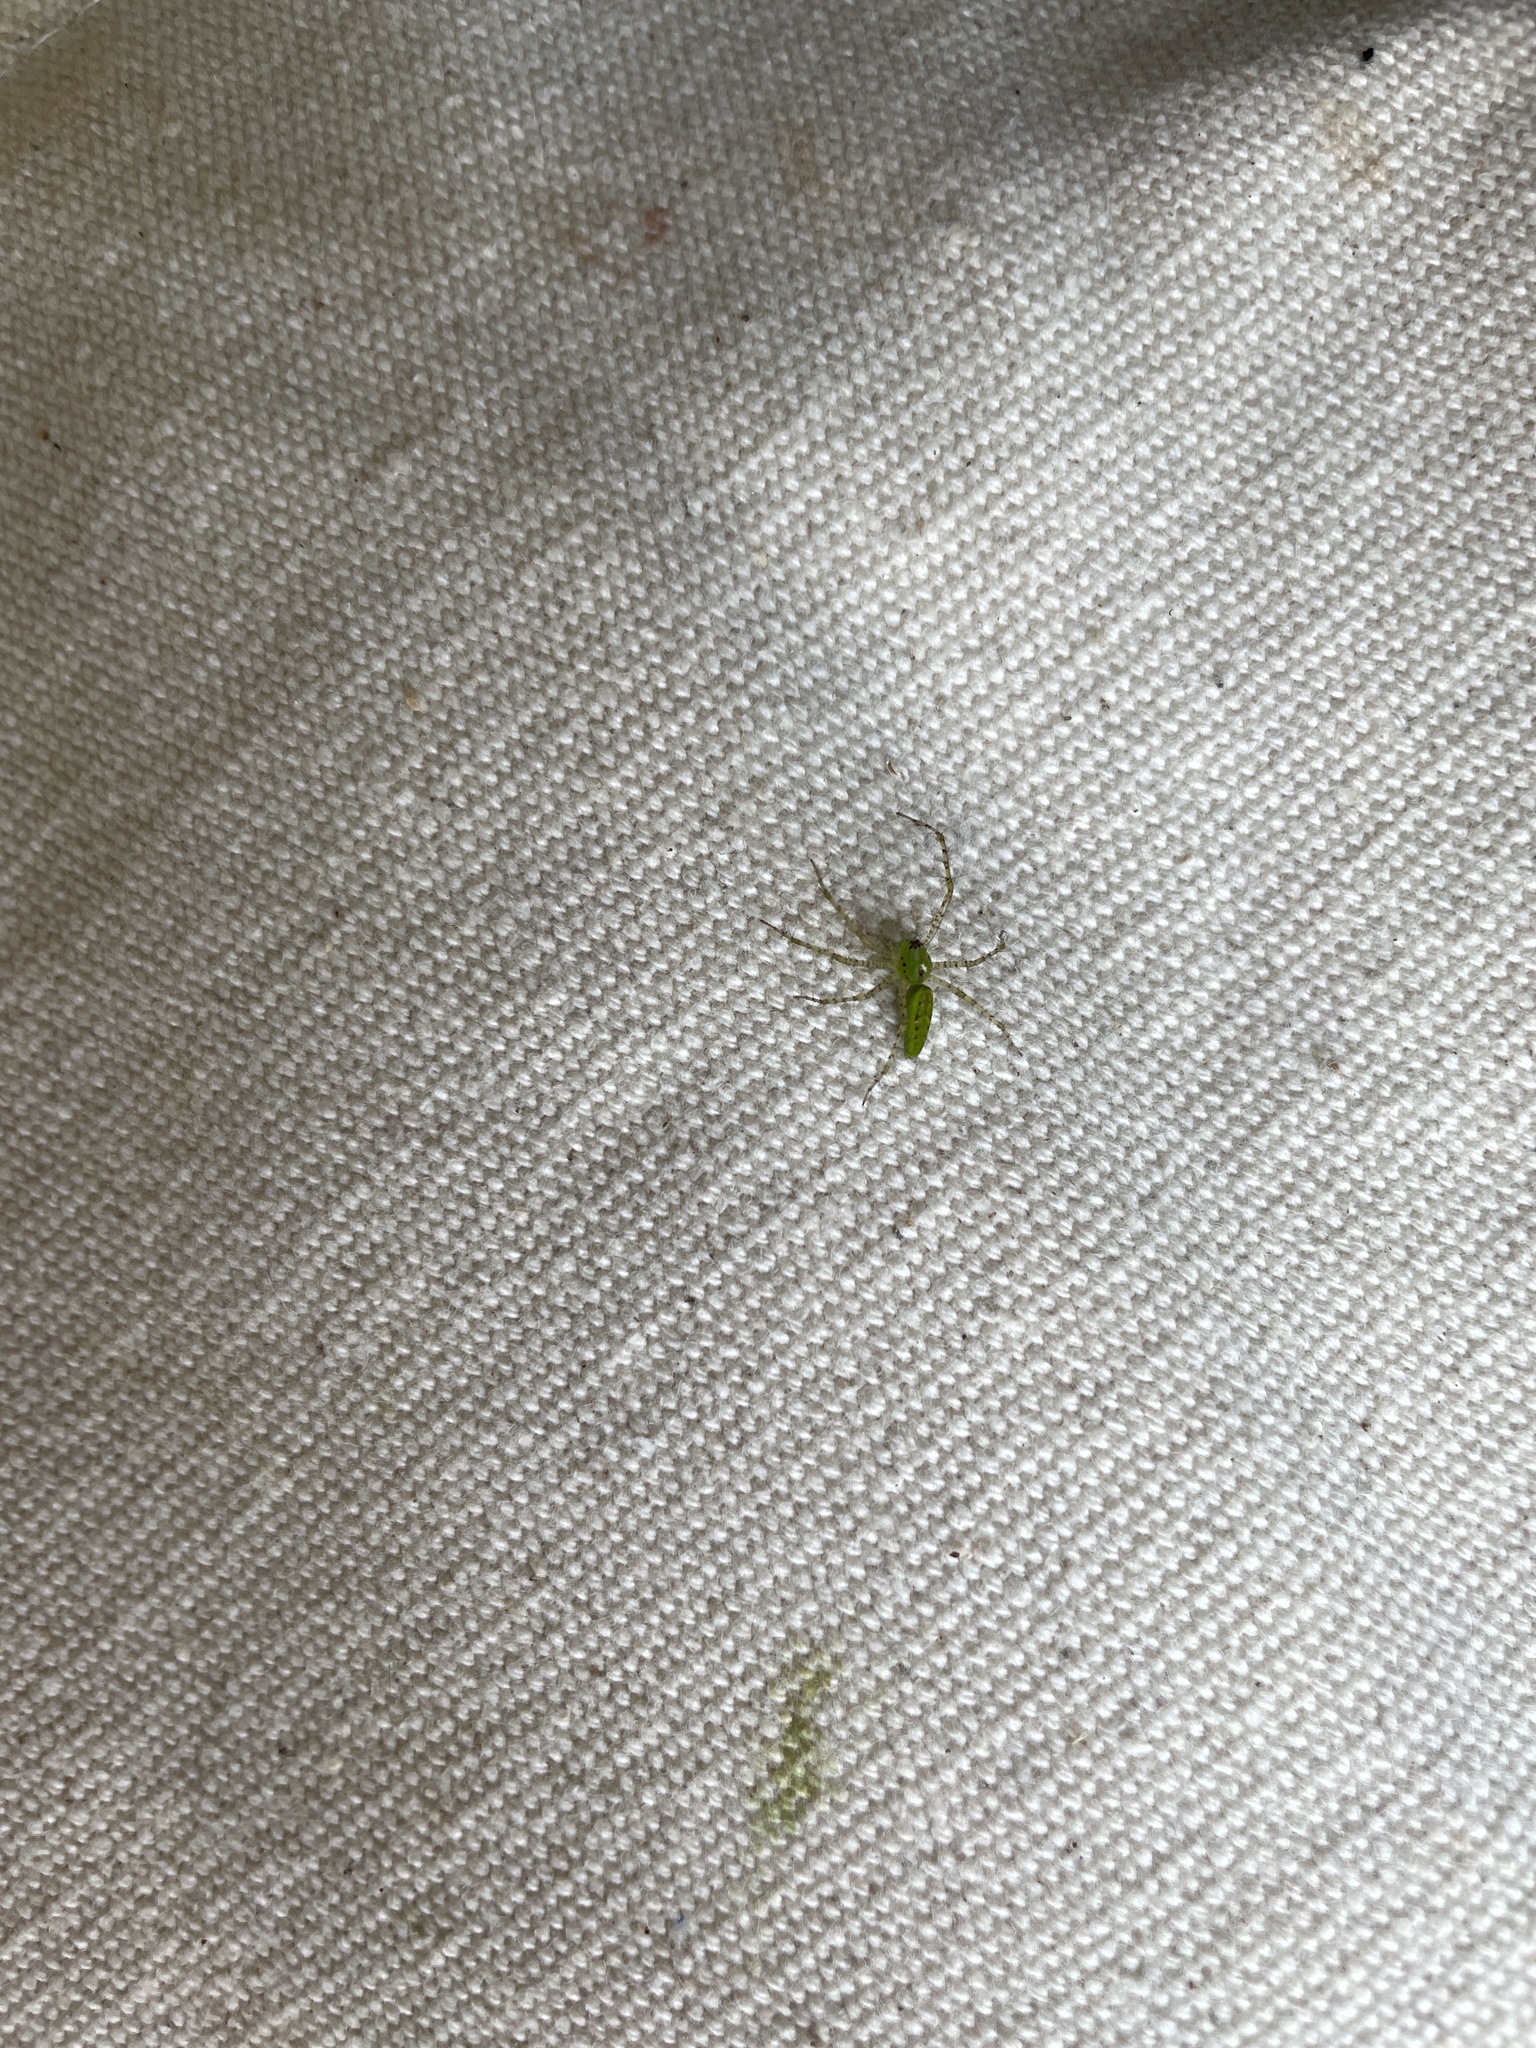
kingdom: Animalia
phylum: Arthropoda
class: Arachnida
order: Araneae
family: Oxyopidae
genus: Peucetia
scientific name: Peucetia viridans
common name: Lynx spiders
